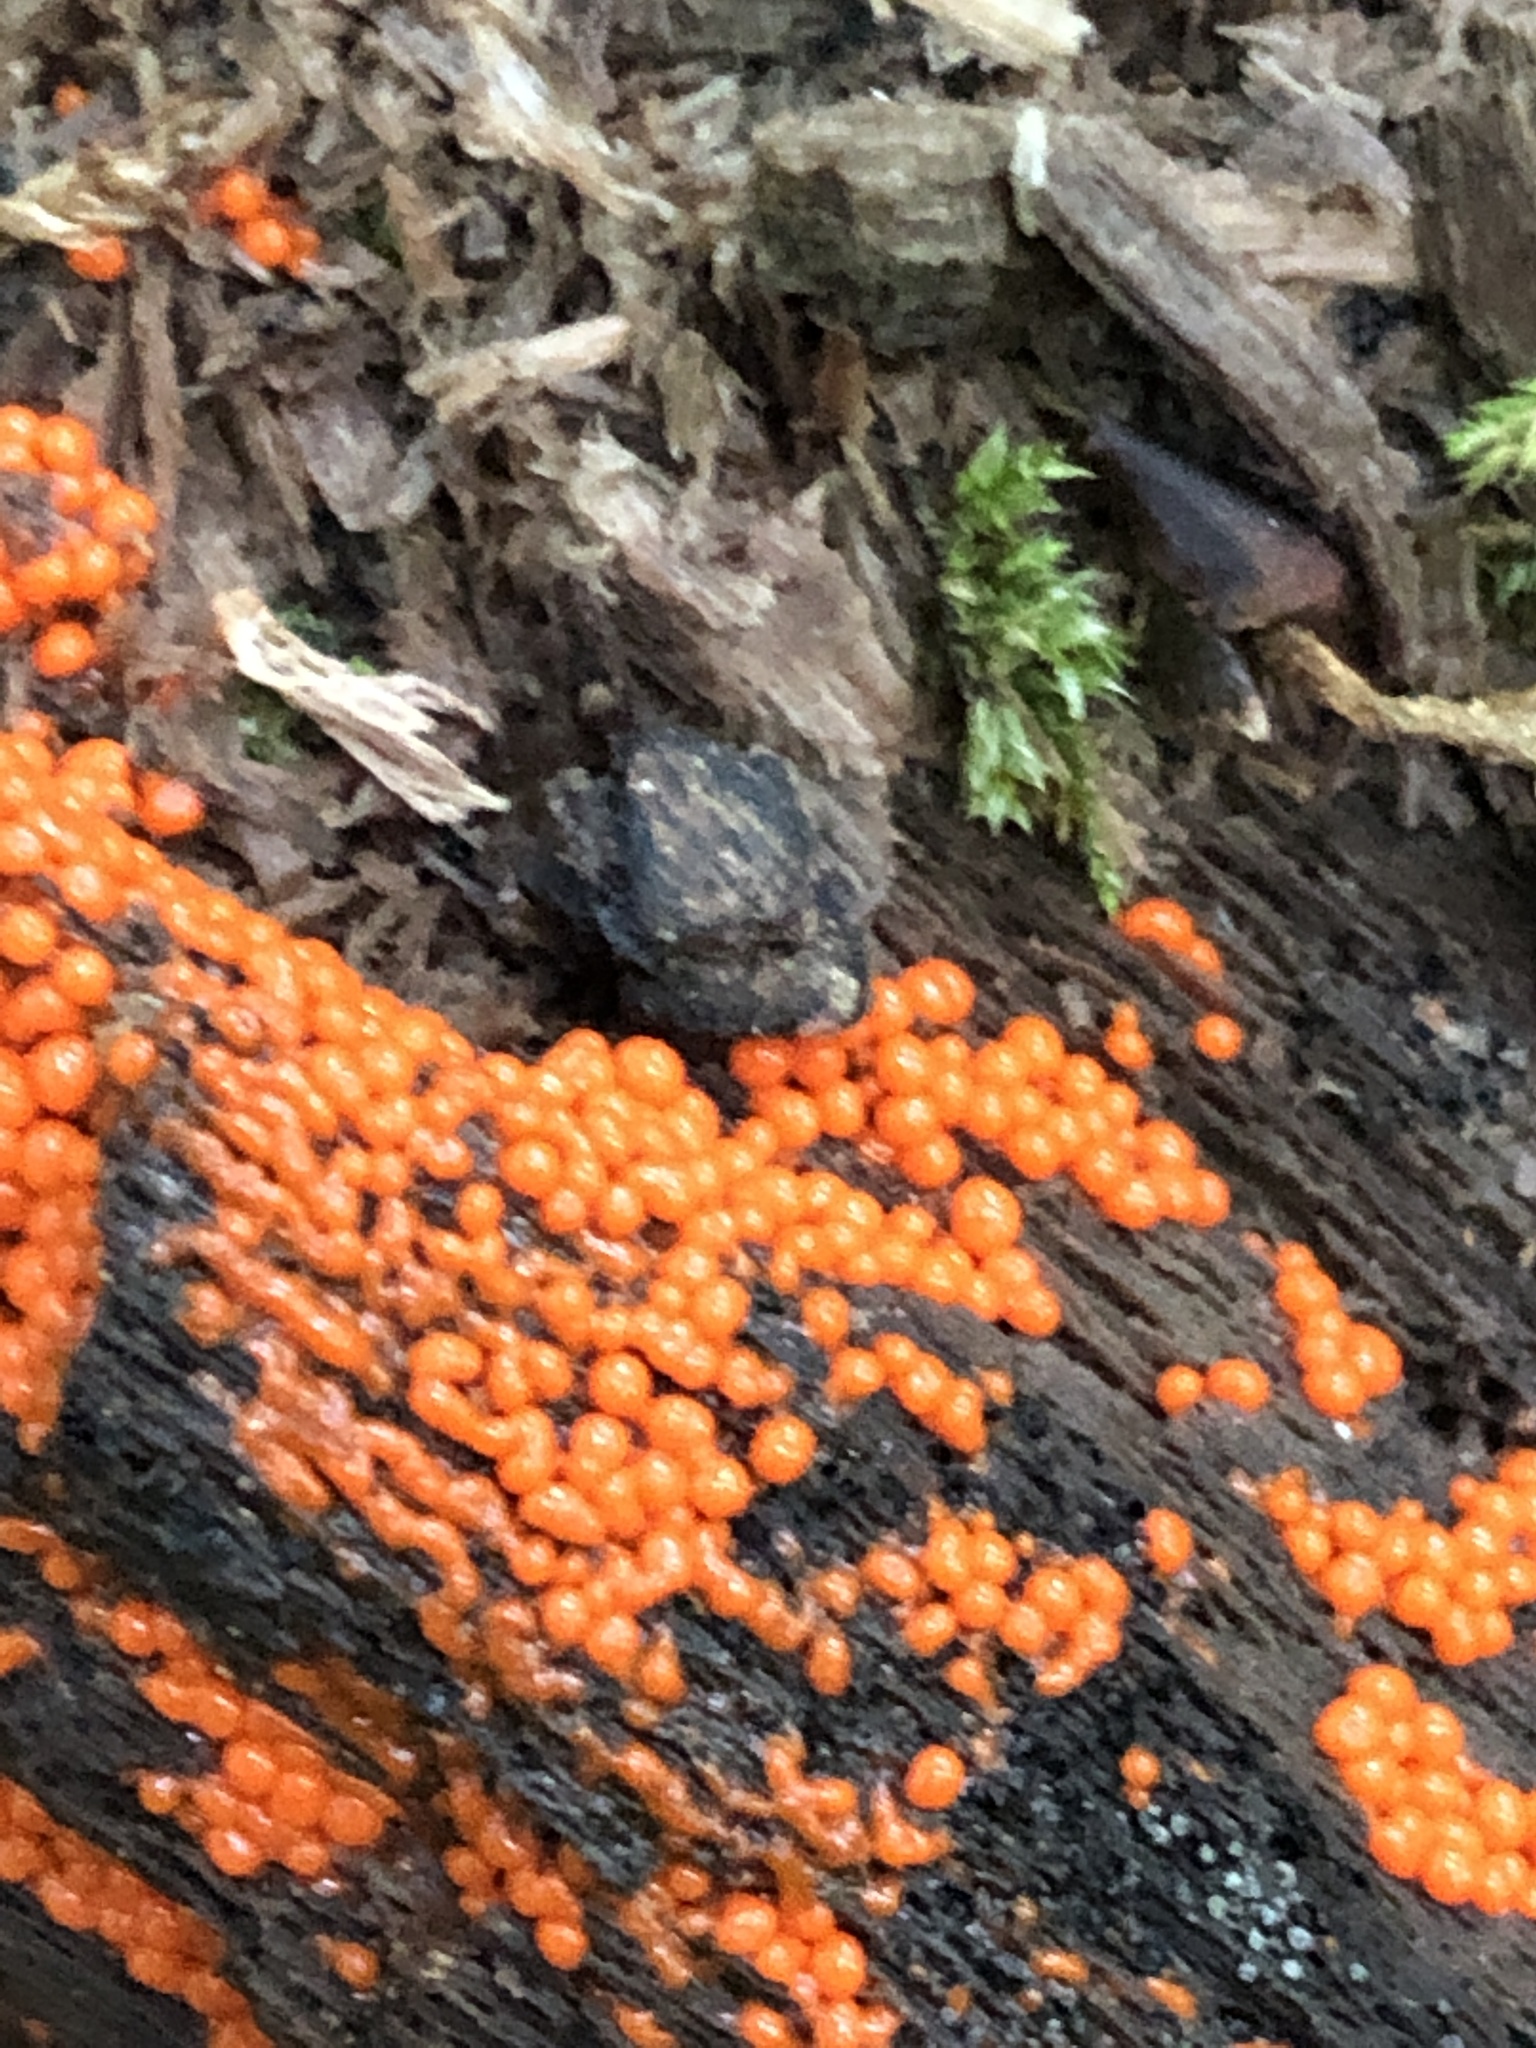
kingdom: Protozoa
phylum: Mycetozoa
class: Myxomycetes
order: Trichiales
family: Arcyriaceae
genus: Hemitrichia
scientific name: Hemitrichia decipiens
